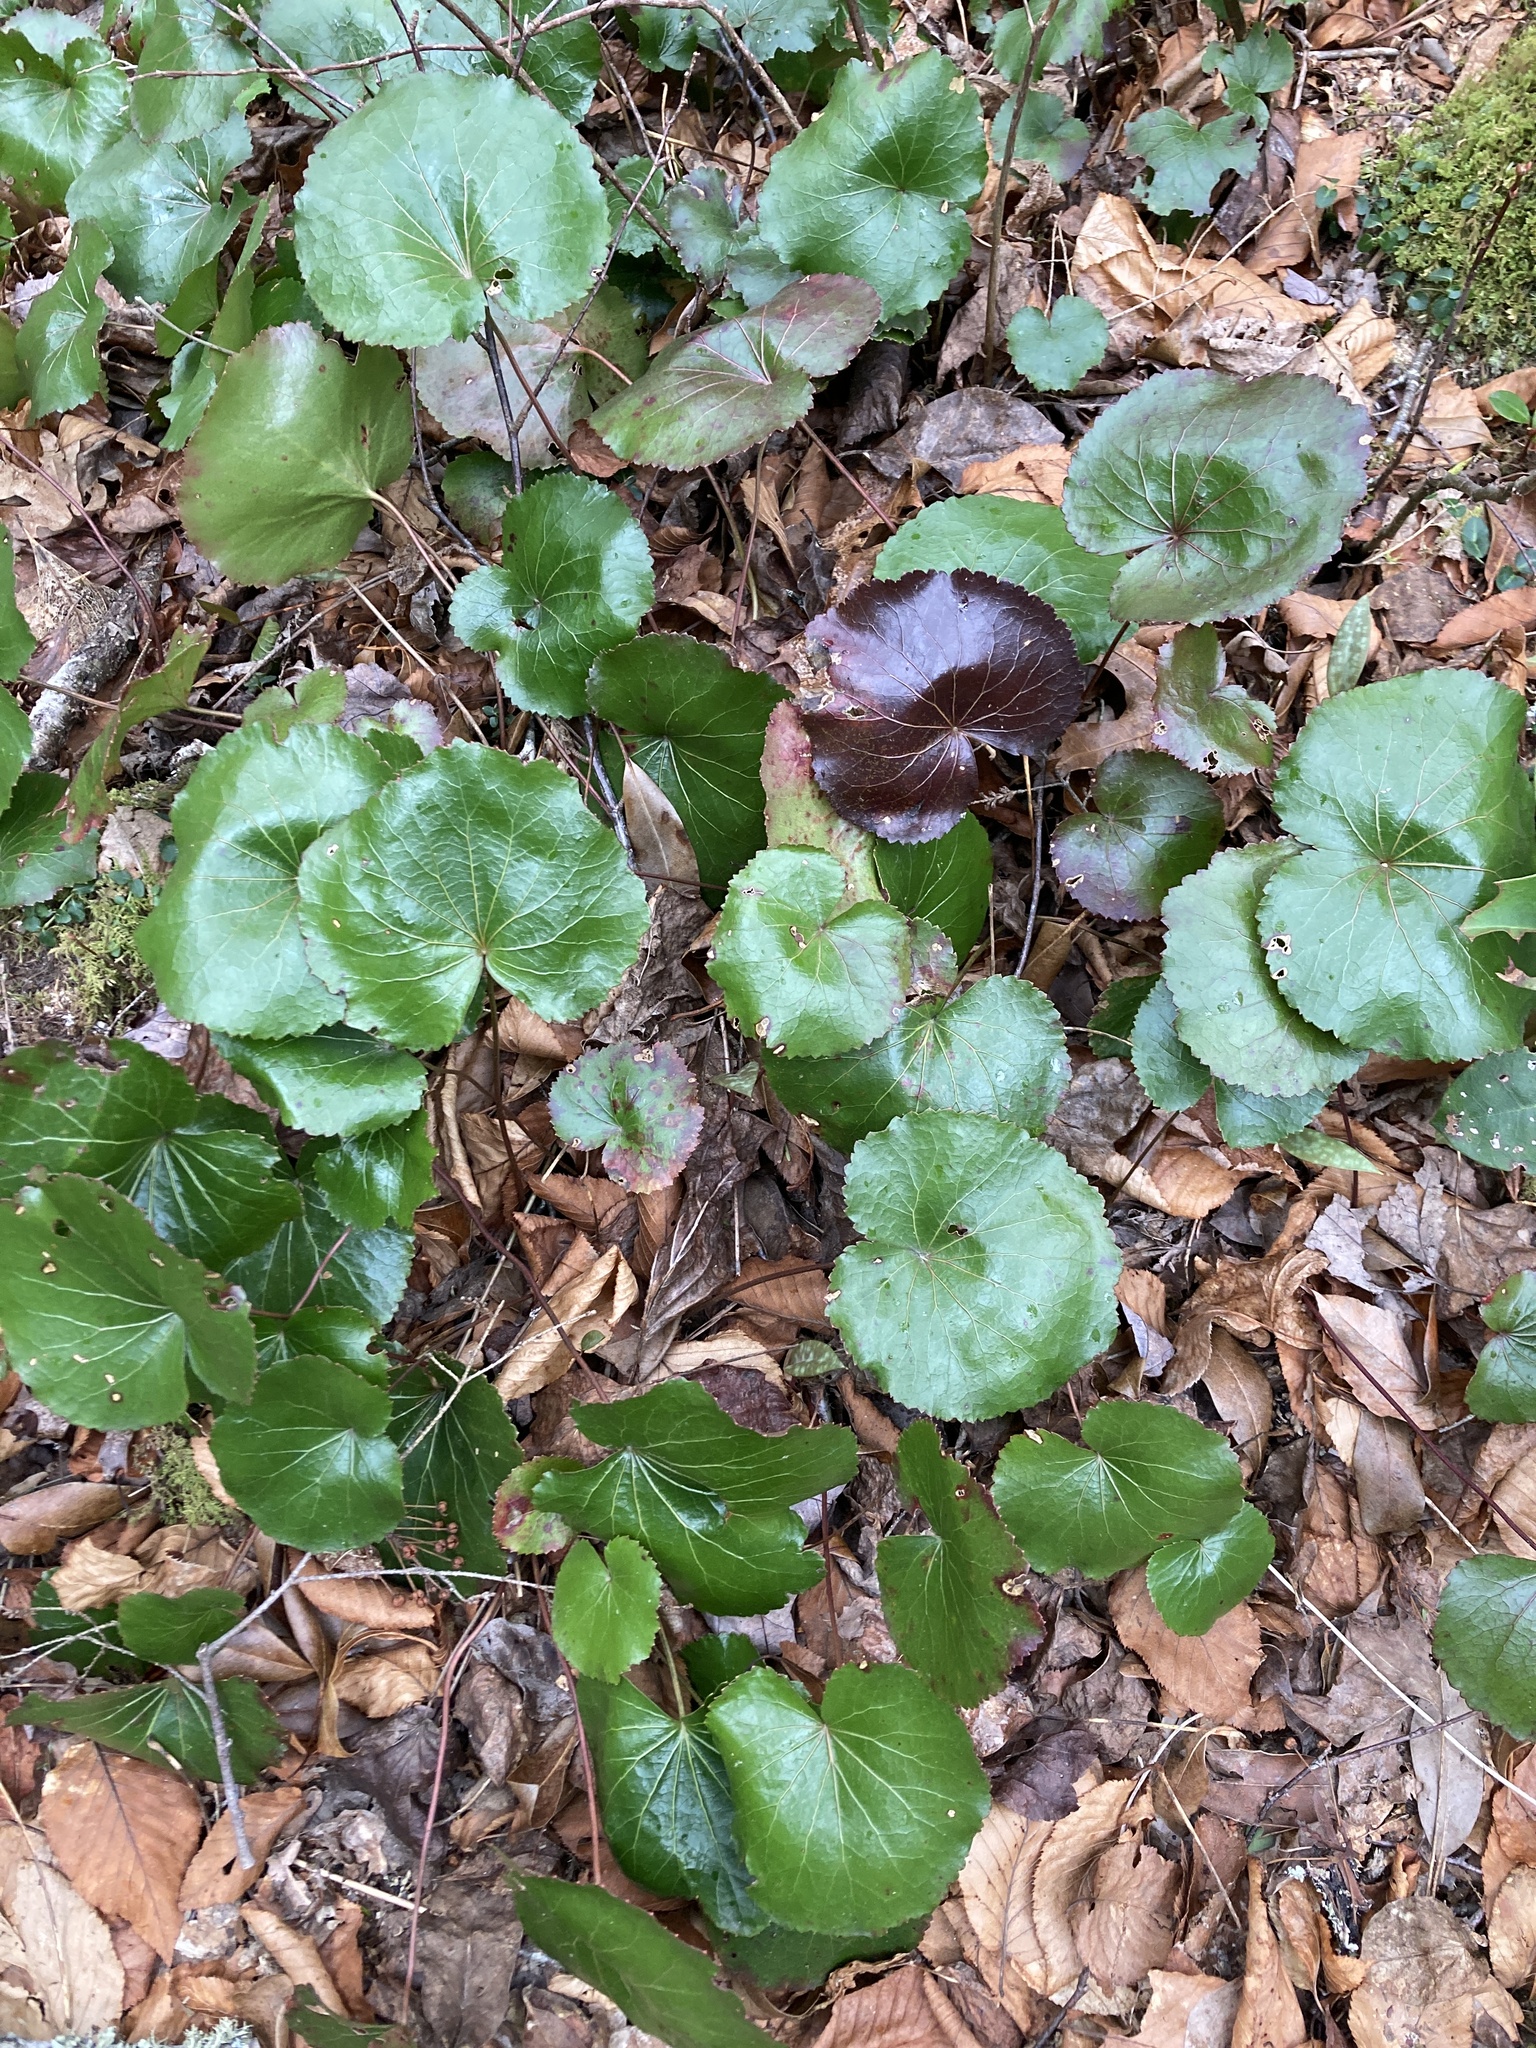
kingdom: Plantae
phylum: Tracheophyta
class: Magnoliopsida
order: Ericales
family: Diapensiaceae
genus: Galax
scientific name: Galax urceolata
